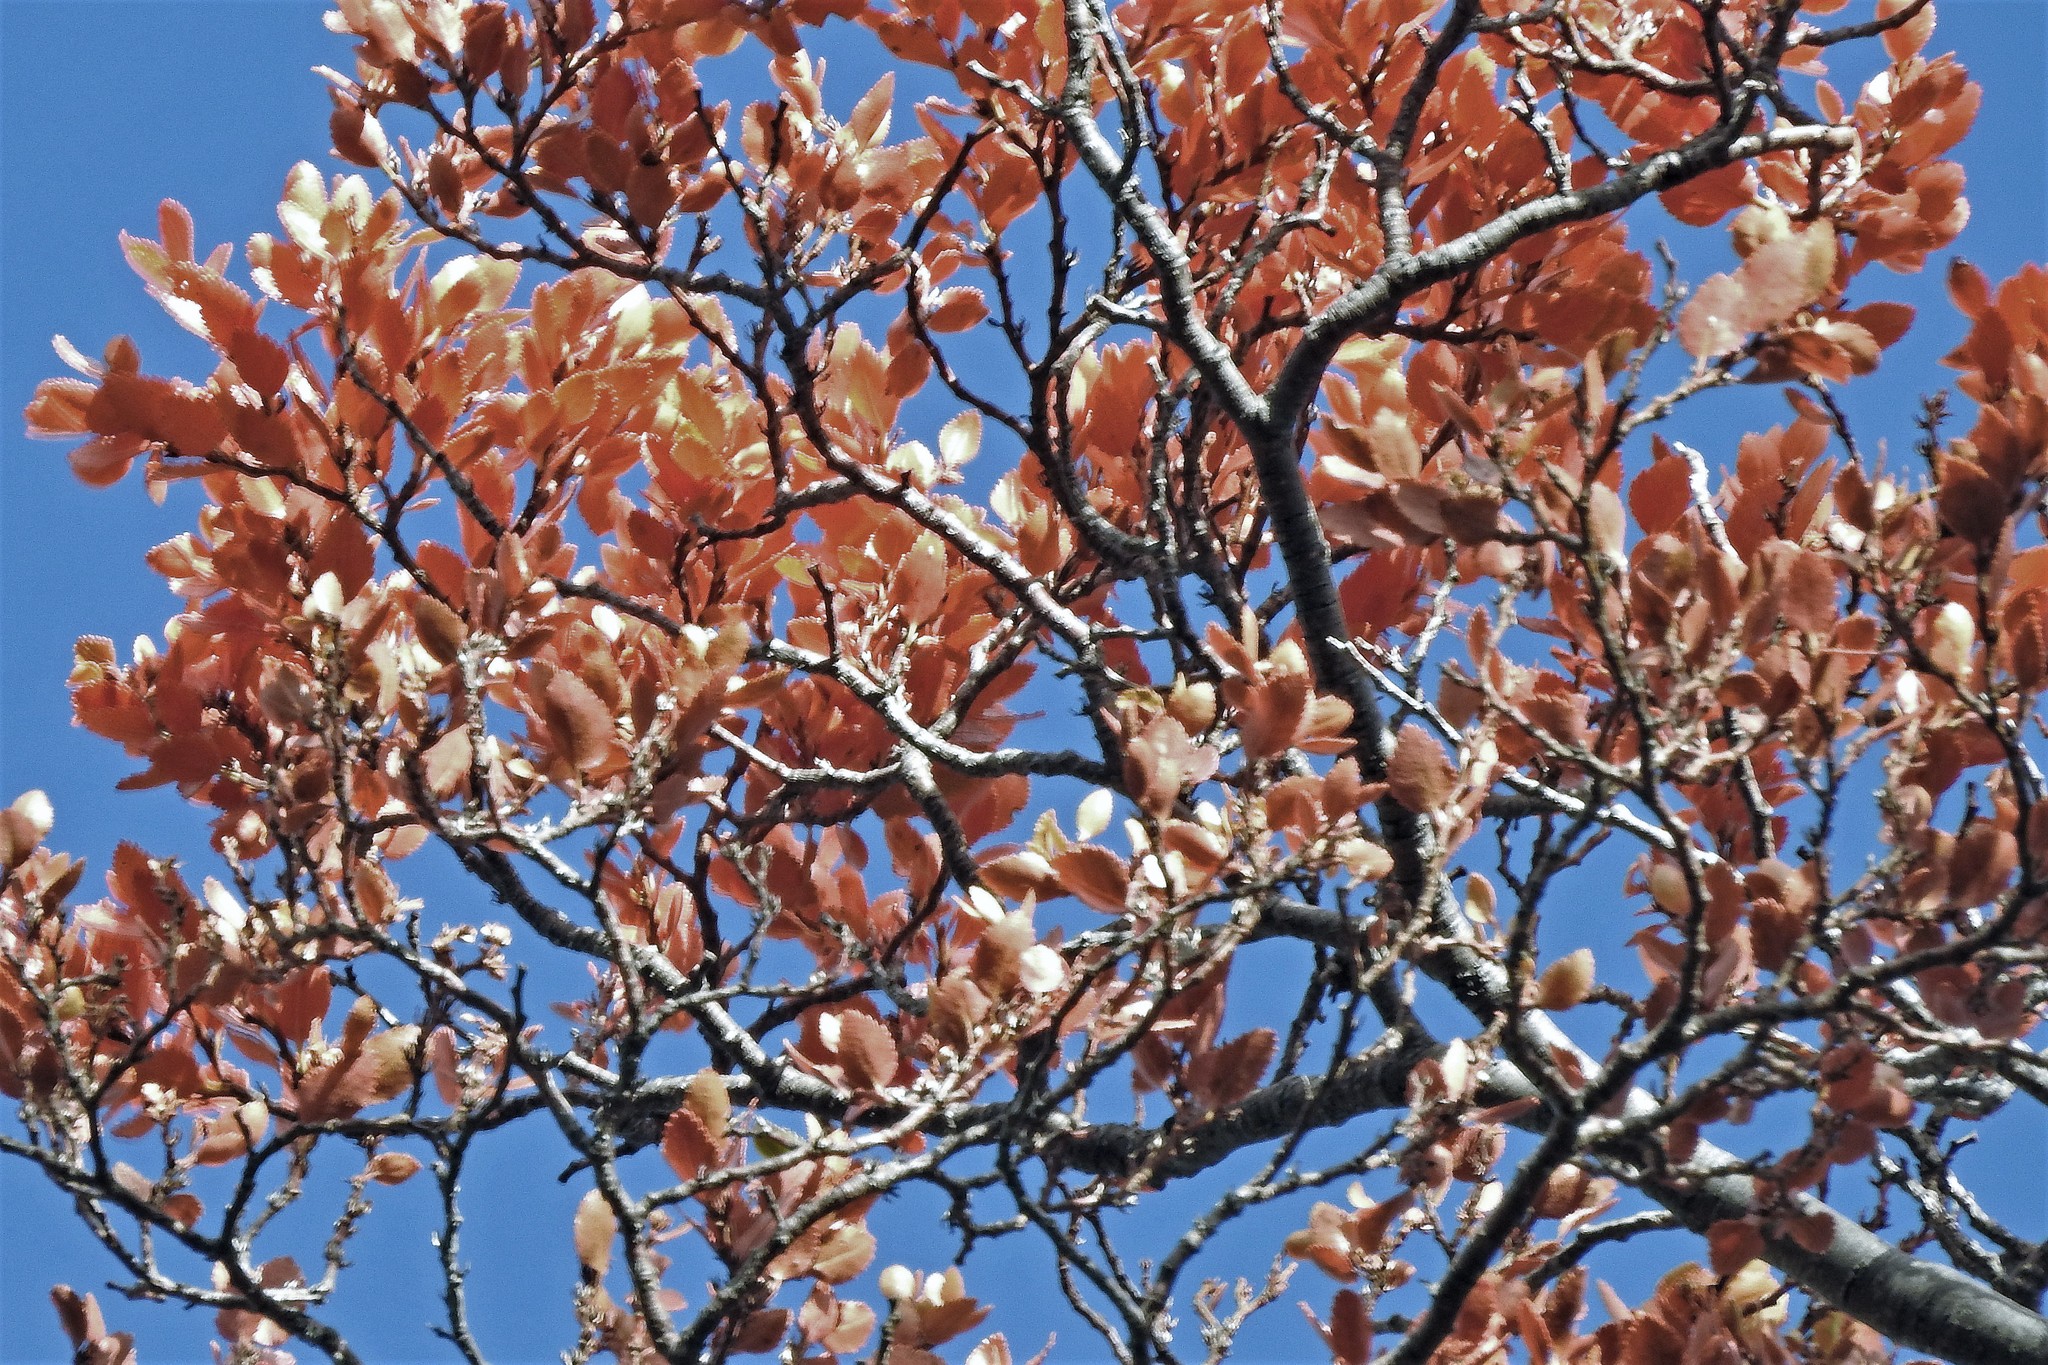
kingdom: Plantae
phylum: Tracheophyta
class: Magnoliopsida
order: Fagales
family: Nothofagaceae
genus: Nothofagus
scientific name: Nothofagus betuloides
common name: Magellan's beech
